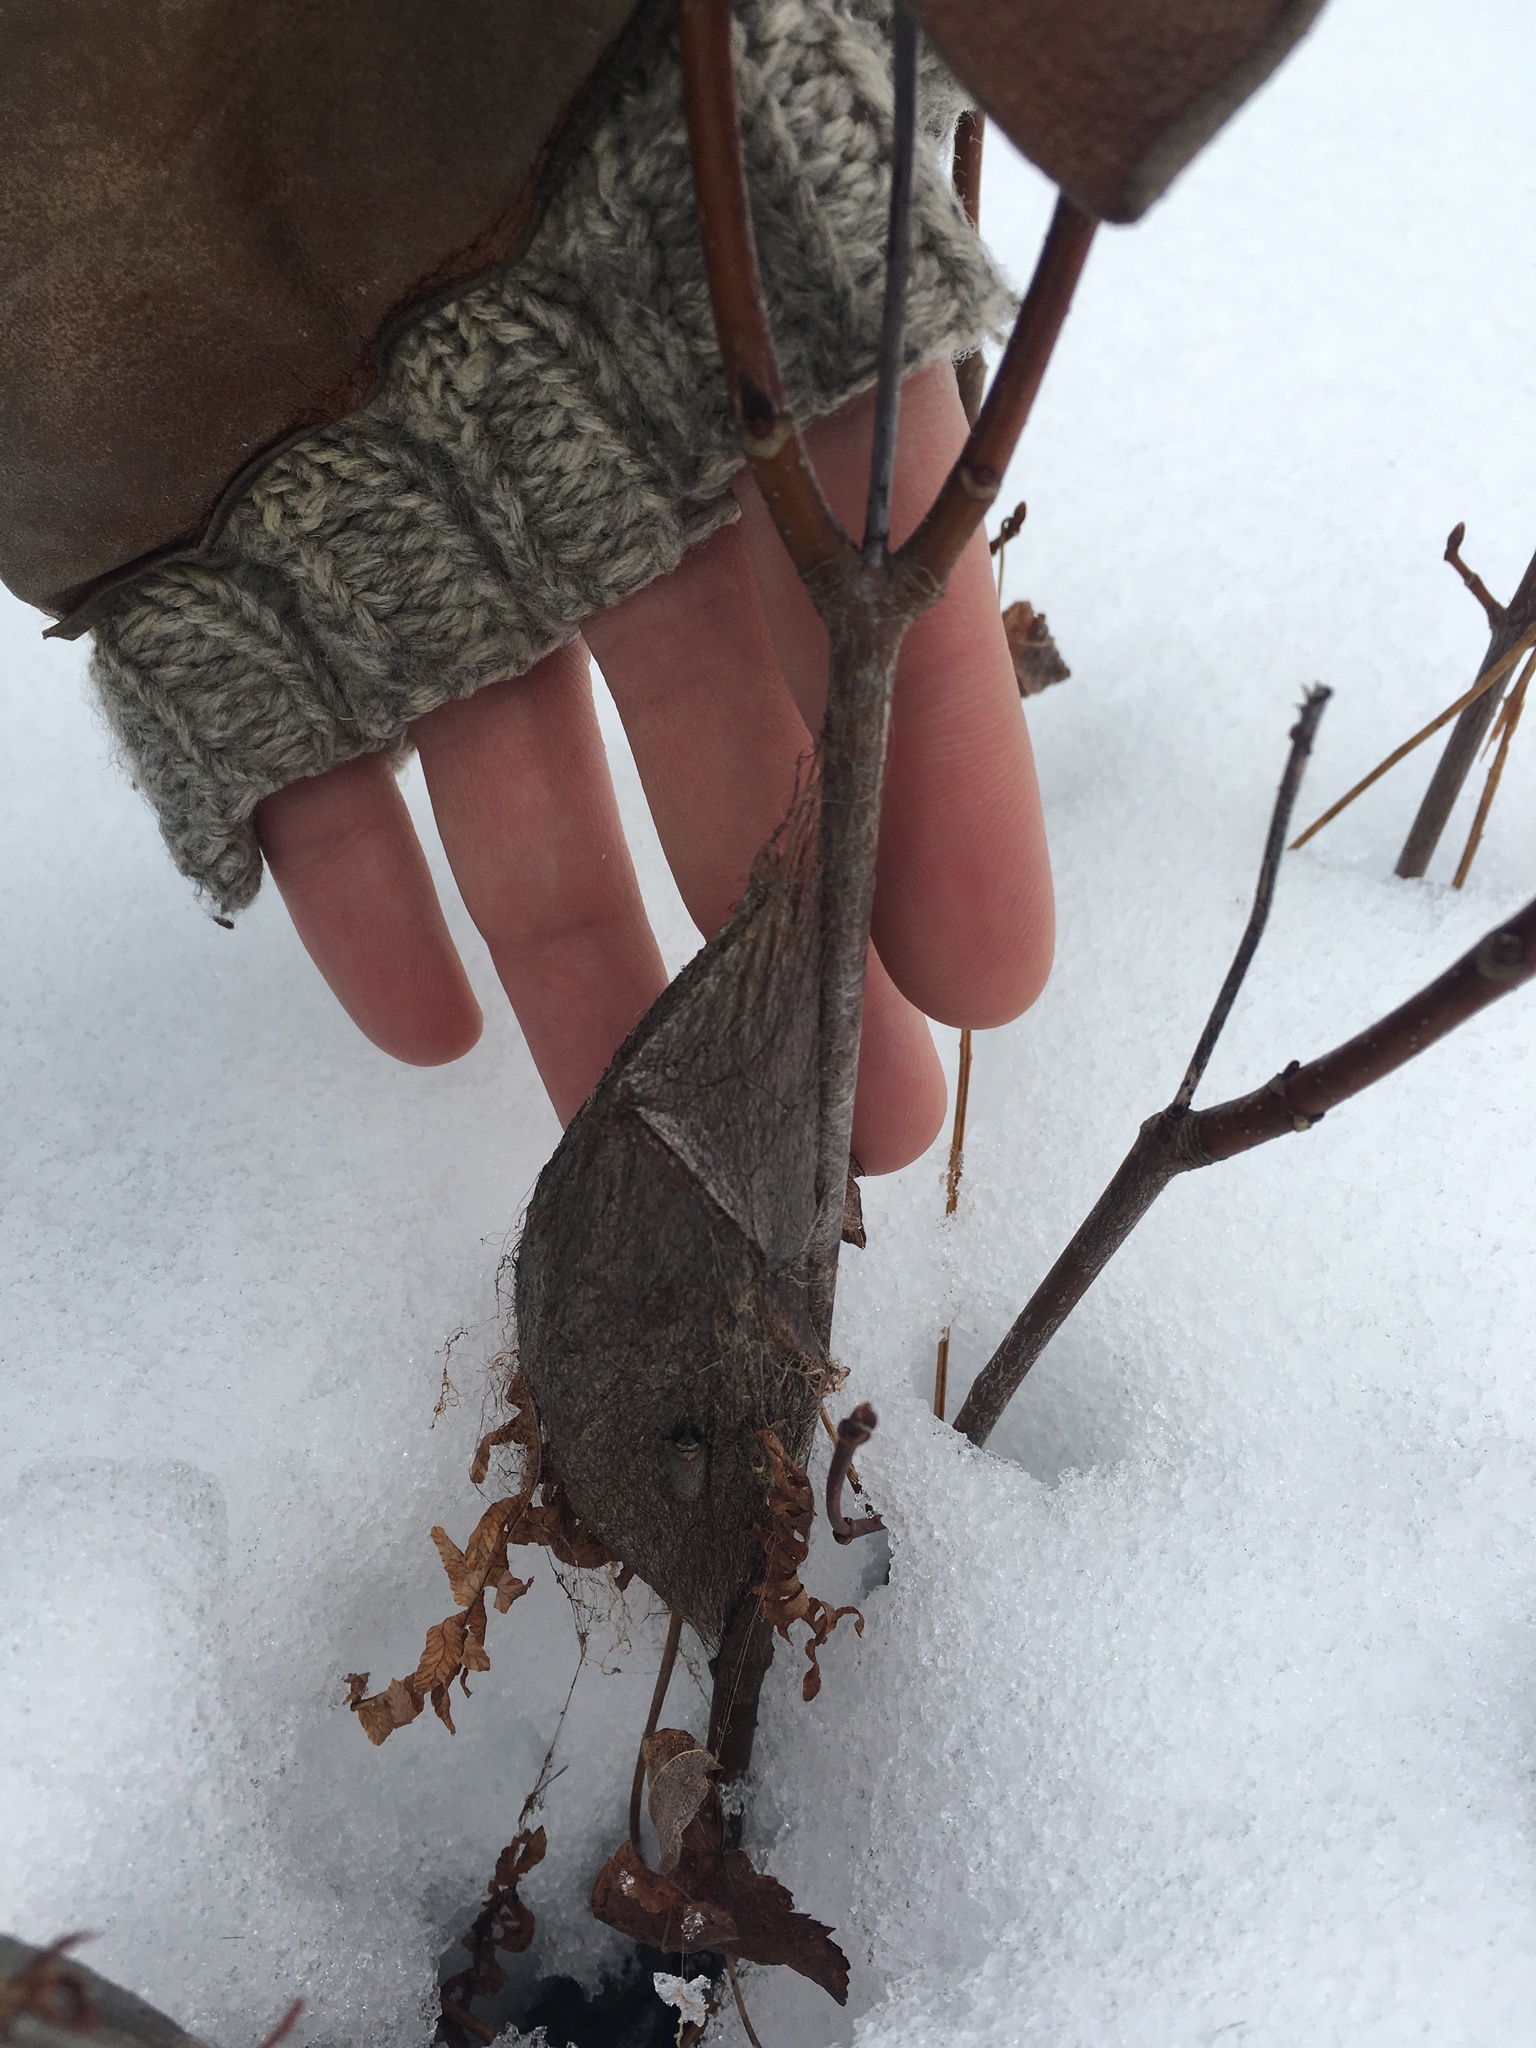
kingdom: Animalia
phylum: Arthropoda
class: Insecta
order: Lepidoptera
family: Saturniidae
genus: Hyalophora
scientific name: Hyalophora cecropia
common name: Cecropia silkmoth
